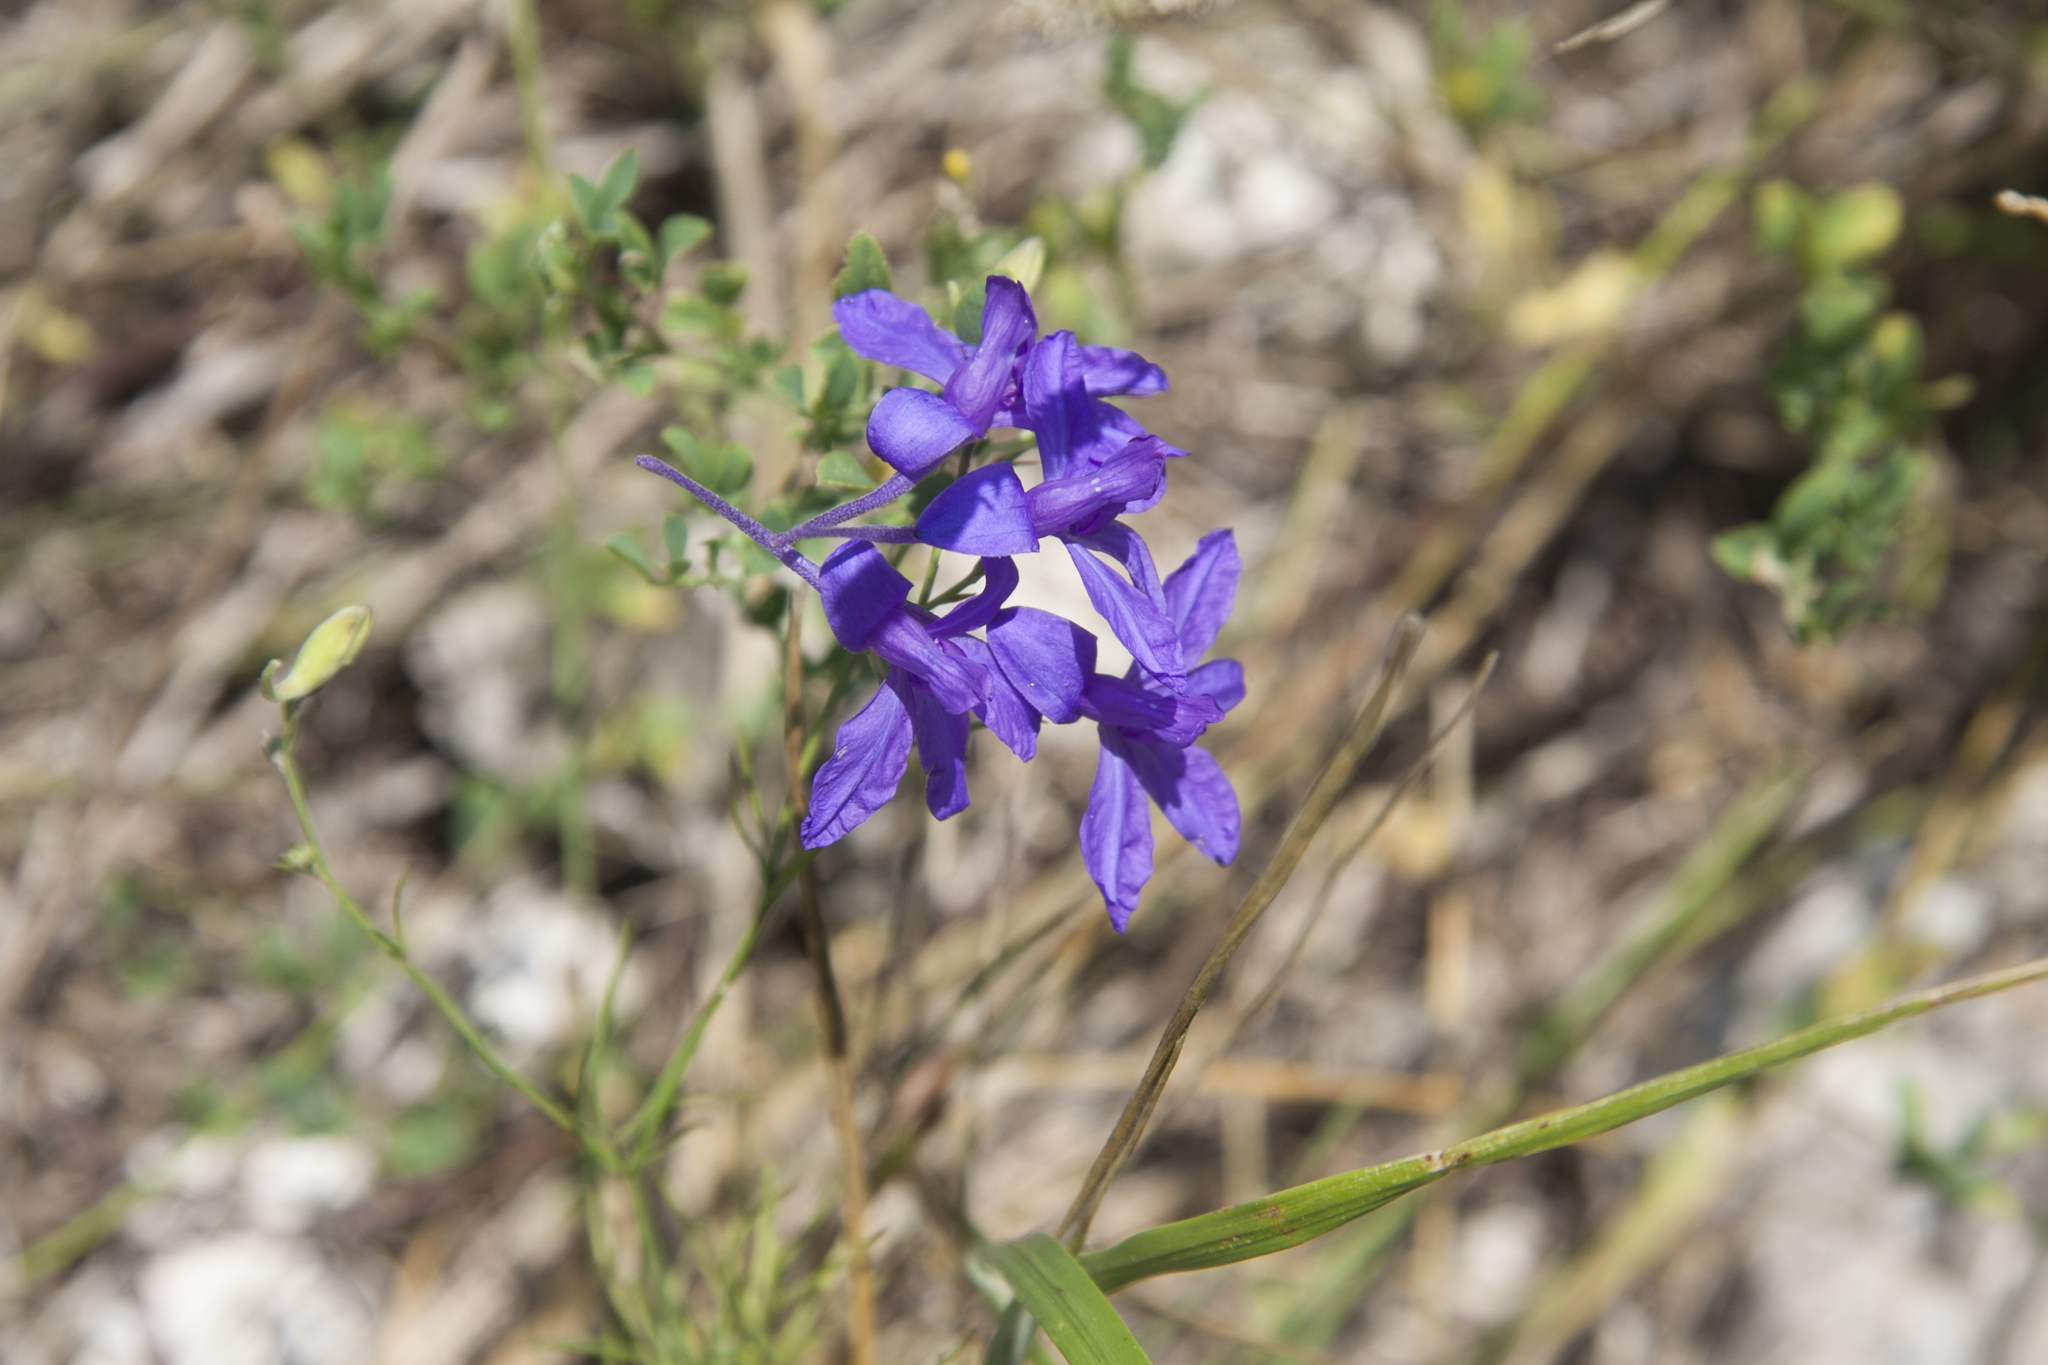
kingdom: Plantae
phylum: Tracheophyta
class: Magnoliopsida
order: Ranunculales
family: Ranunculaceae
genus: Delphinium
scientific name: Delphinium consolida
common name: Branching larkspur
